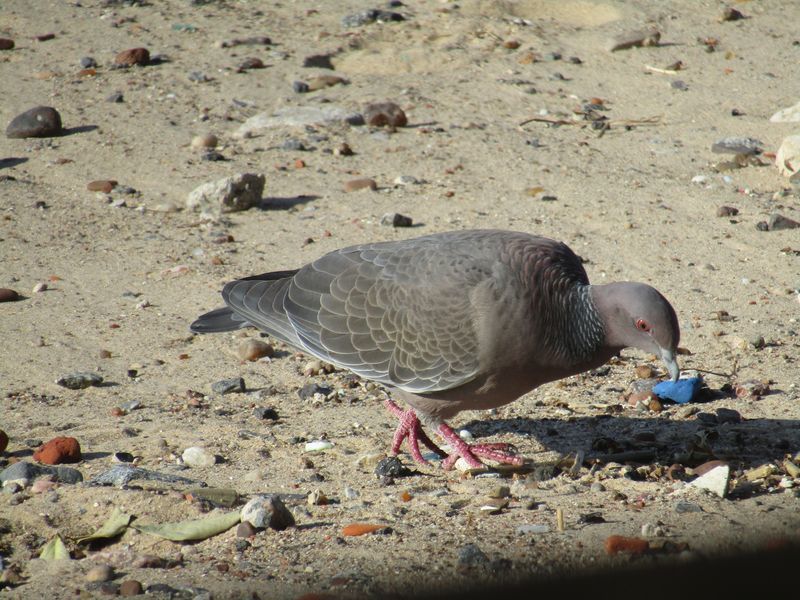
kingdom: Animalia
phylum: Chordata
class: Aves
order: Columbiformes
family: Columbidae
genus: Patagioenas
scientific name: Patagioenas picazuro
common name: Picazuro pigeon
